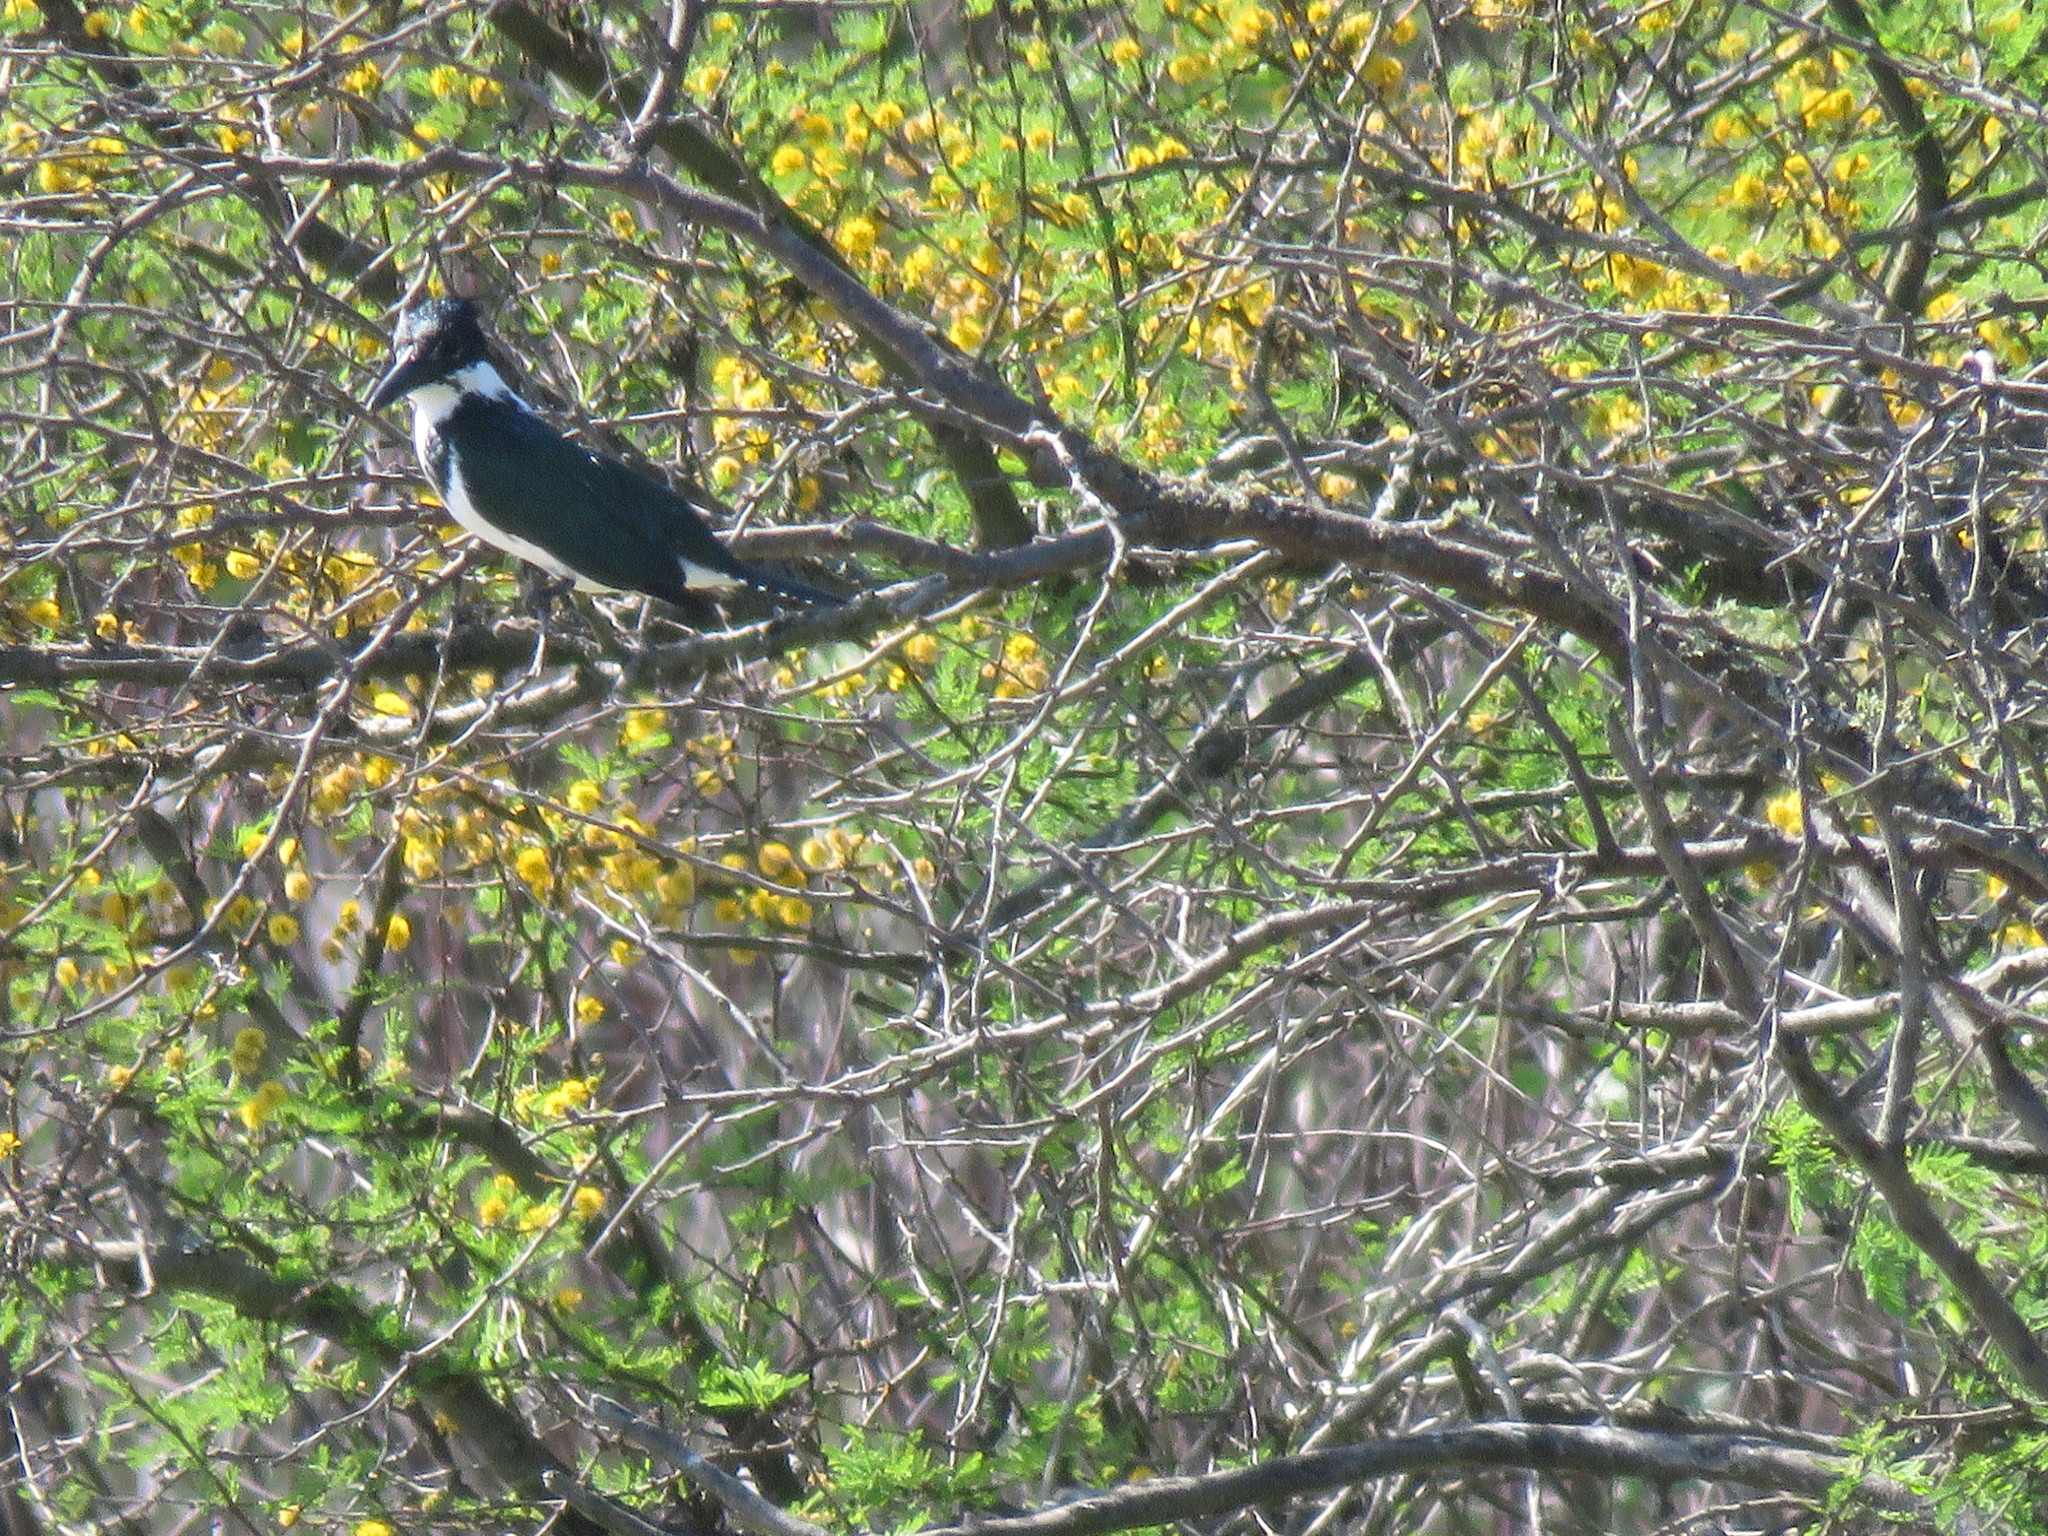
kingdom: Animalia
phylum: Chordata
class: Aves
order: Coraciiformes
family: Alcedinidae
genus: Chloroceryle
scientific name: Chloroceryle amazona
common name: Amazon kingfisher
